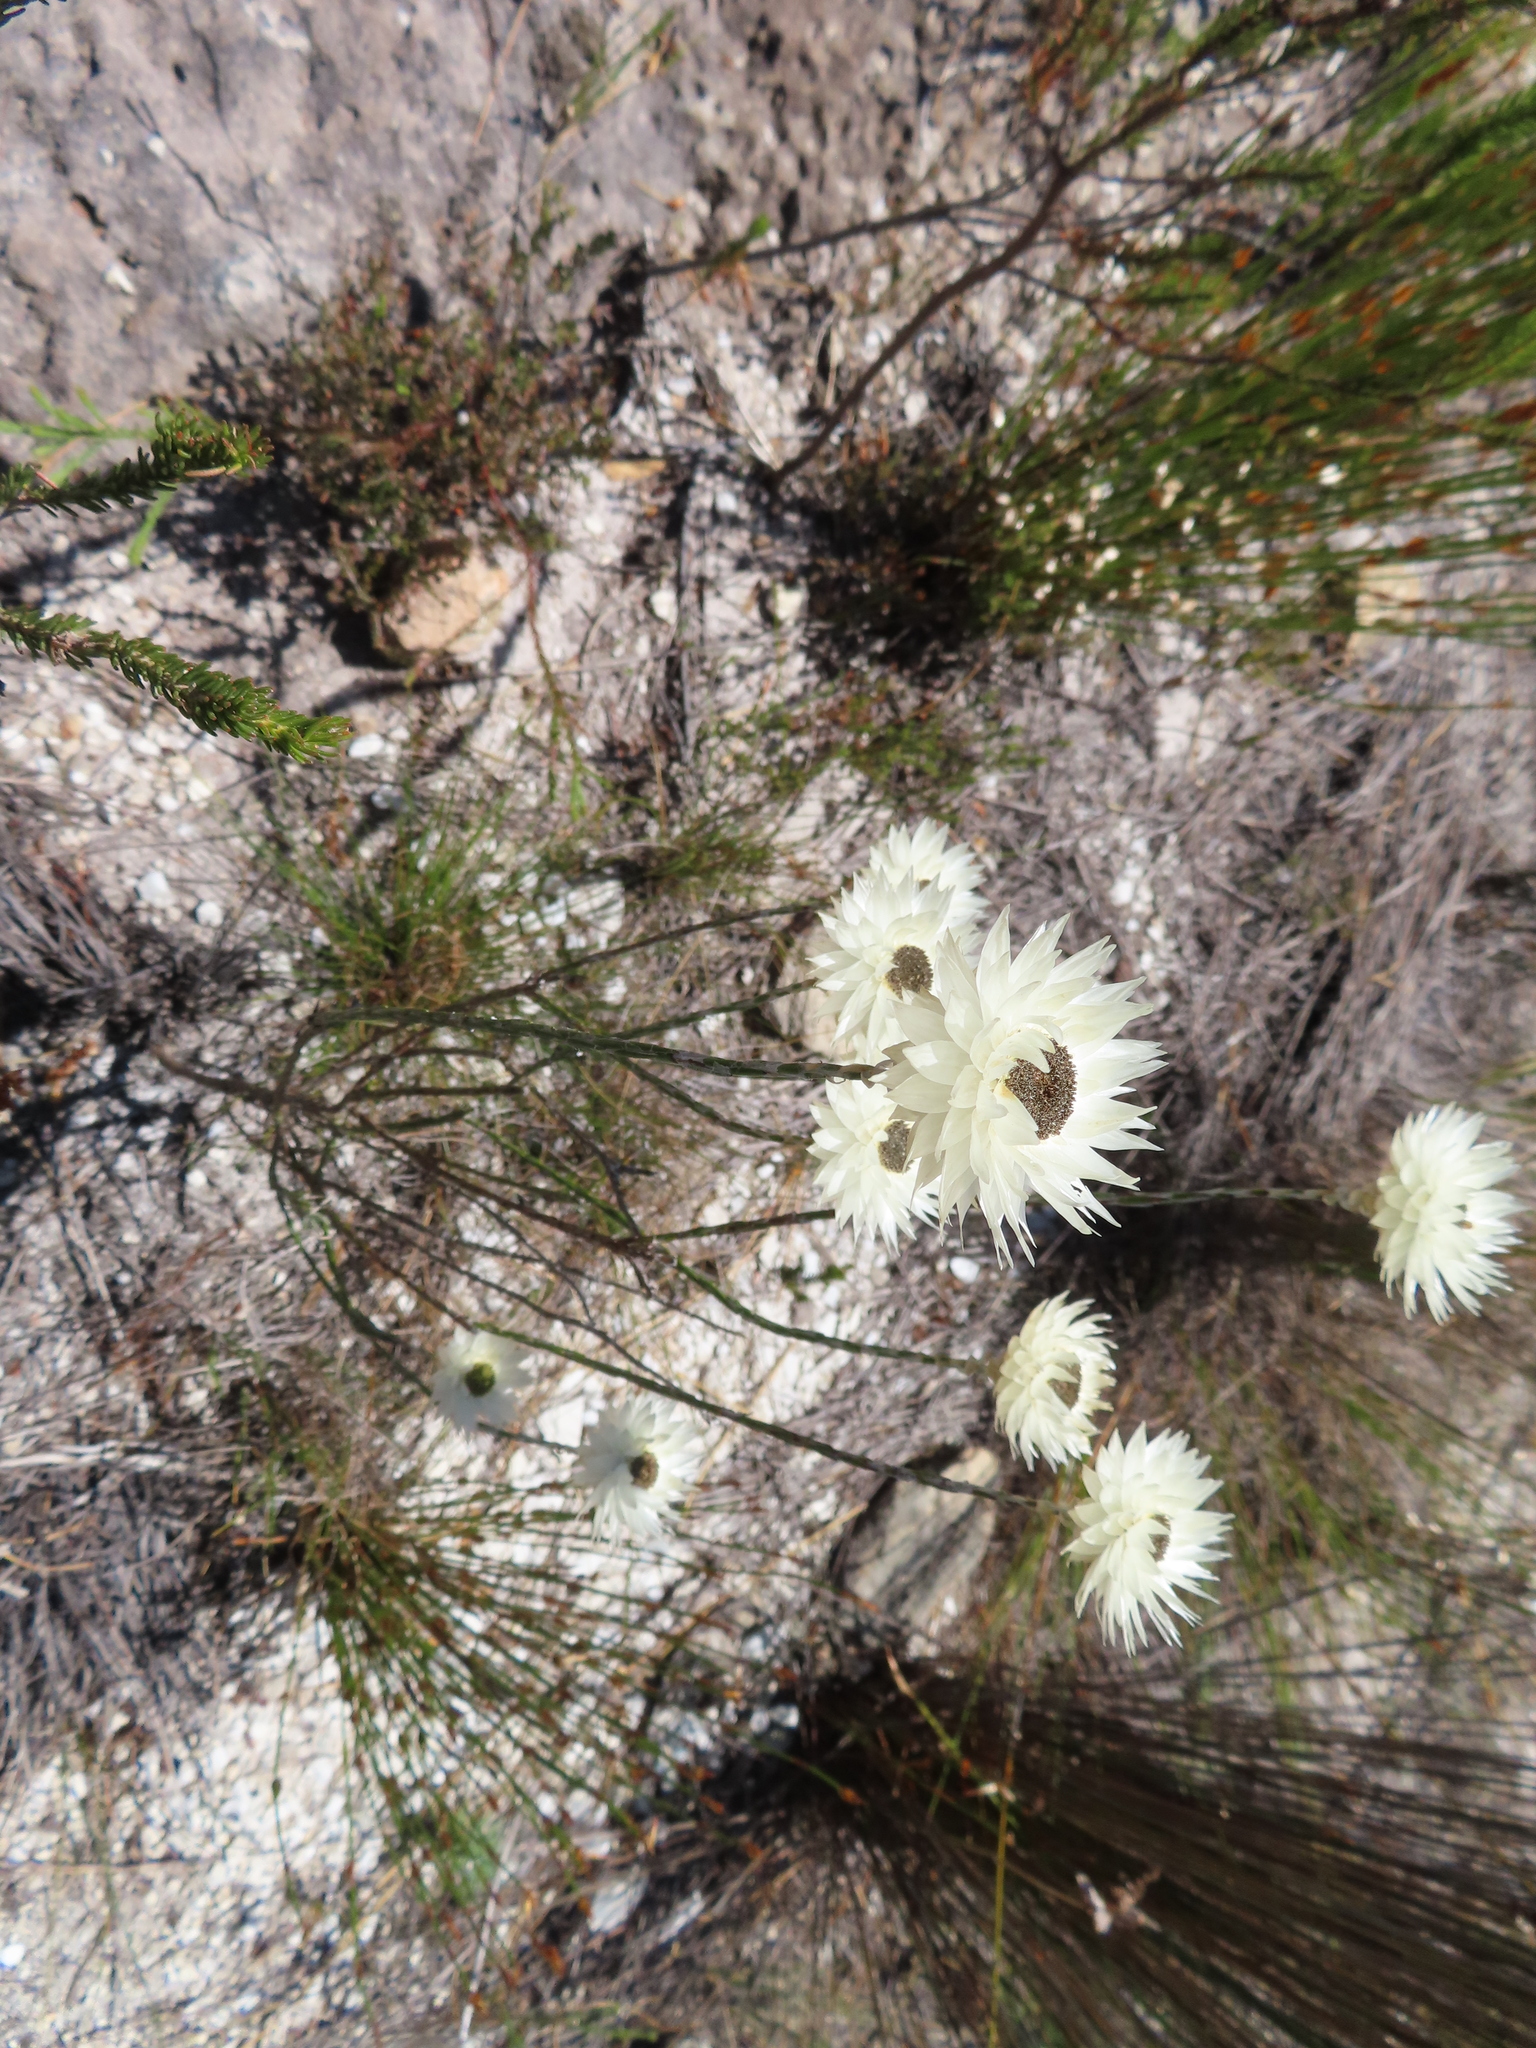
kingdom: Plantae
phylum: Tracheophyta
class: Magnoliopsida
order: Asterales
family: Asteraceae
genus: Edmondia
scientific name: Edmondia sesamoides
